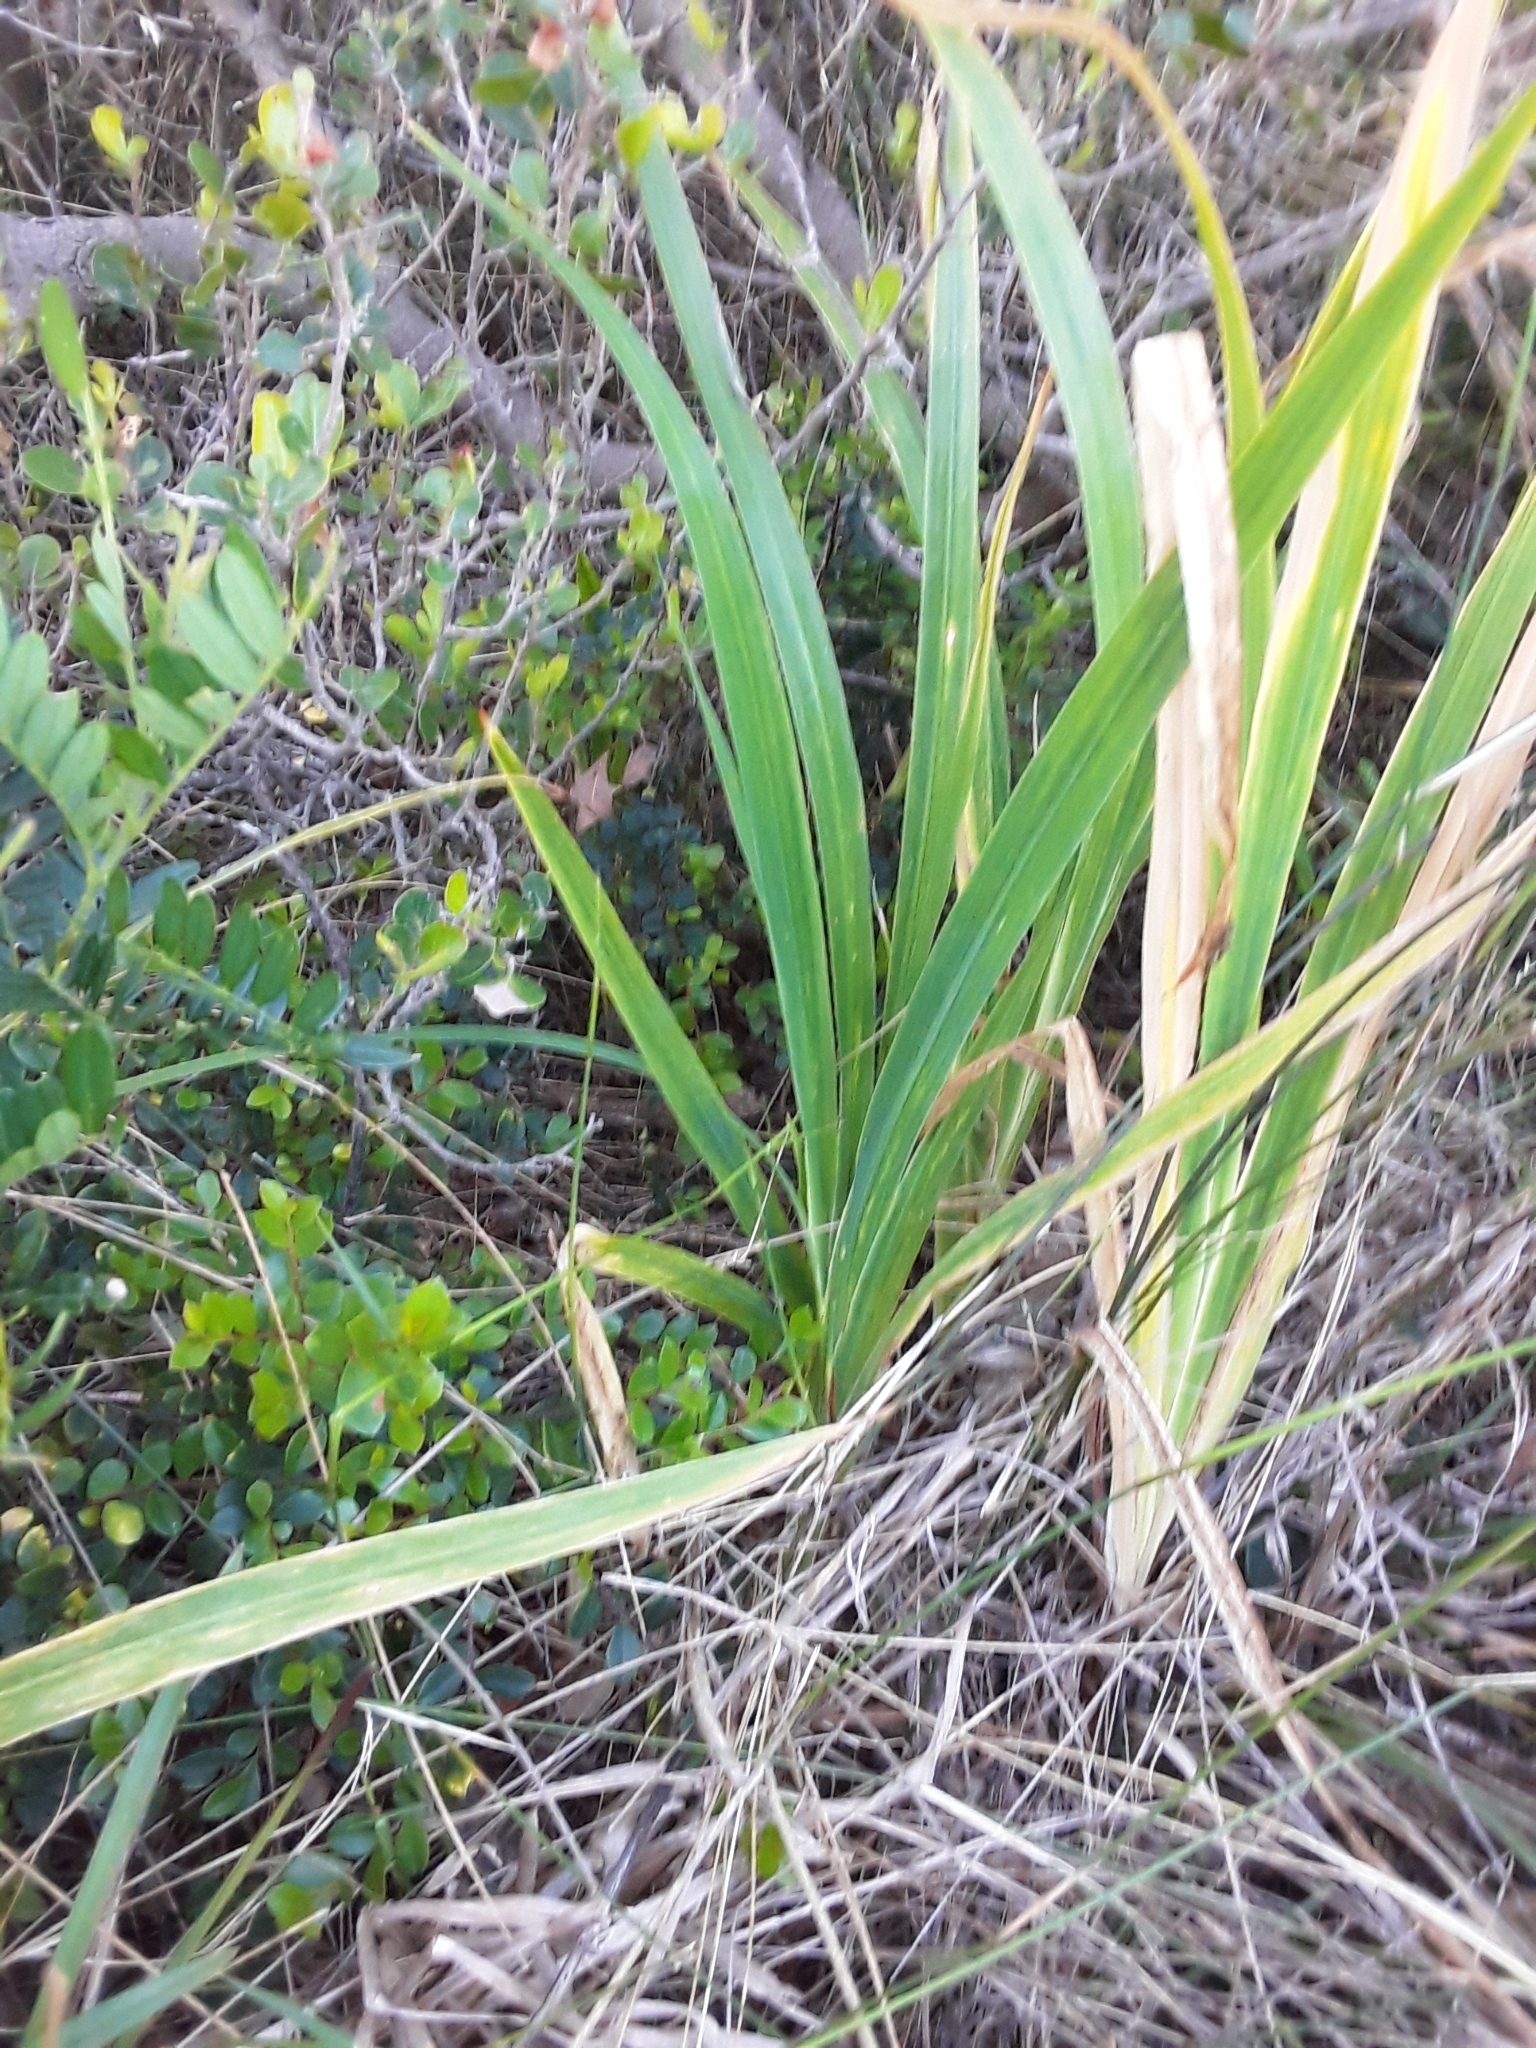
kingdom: Plantae
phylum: Tracheophyta
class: Liliopsida
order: Asparagales
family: Iridaceae
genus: Chasmanthe
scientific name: Chasmanthe aethiopica
